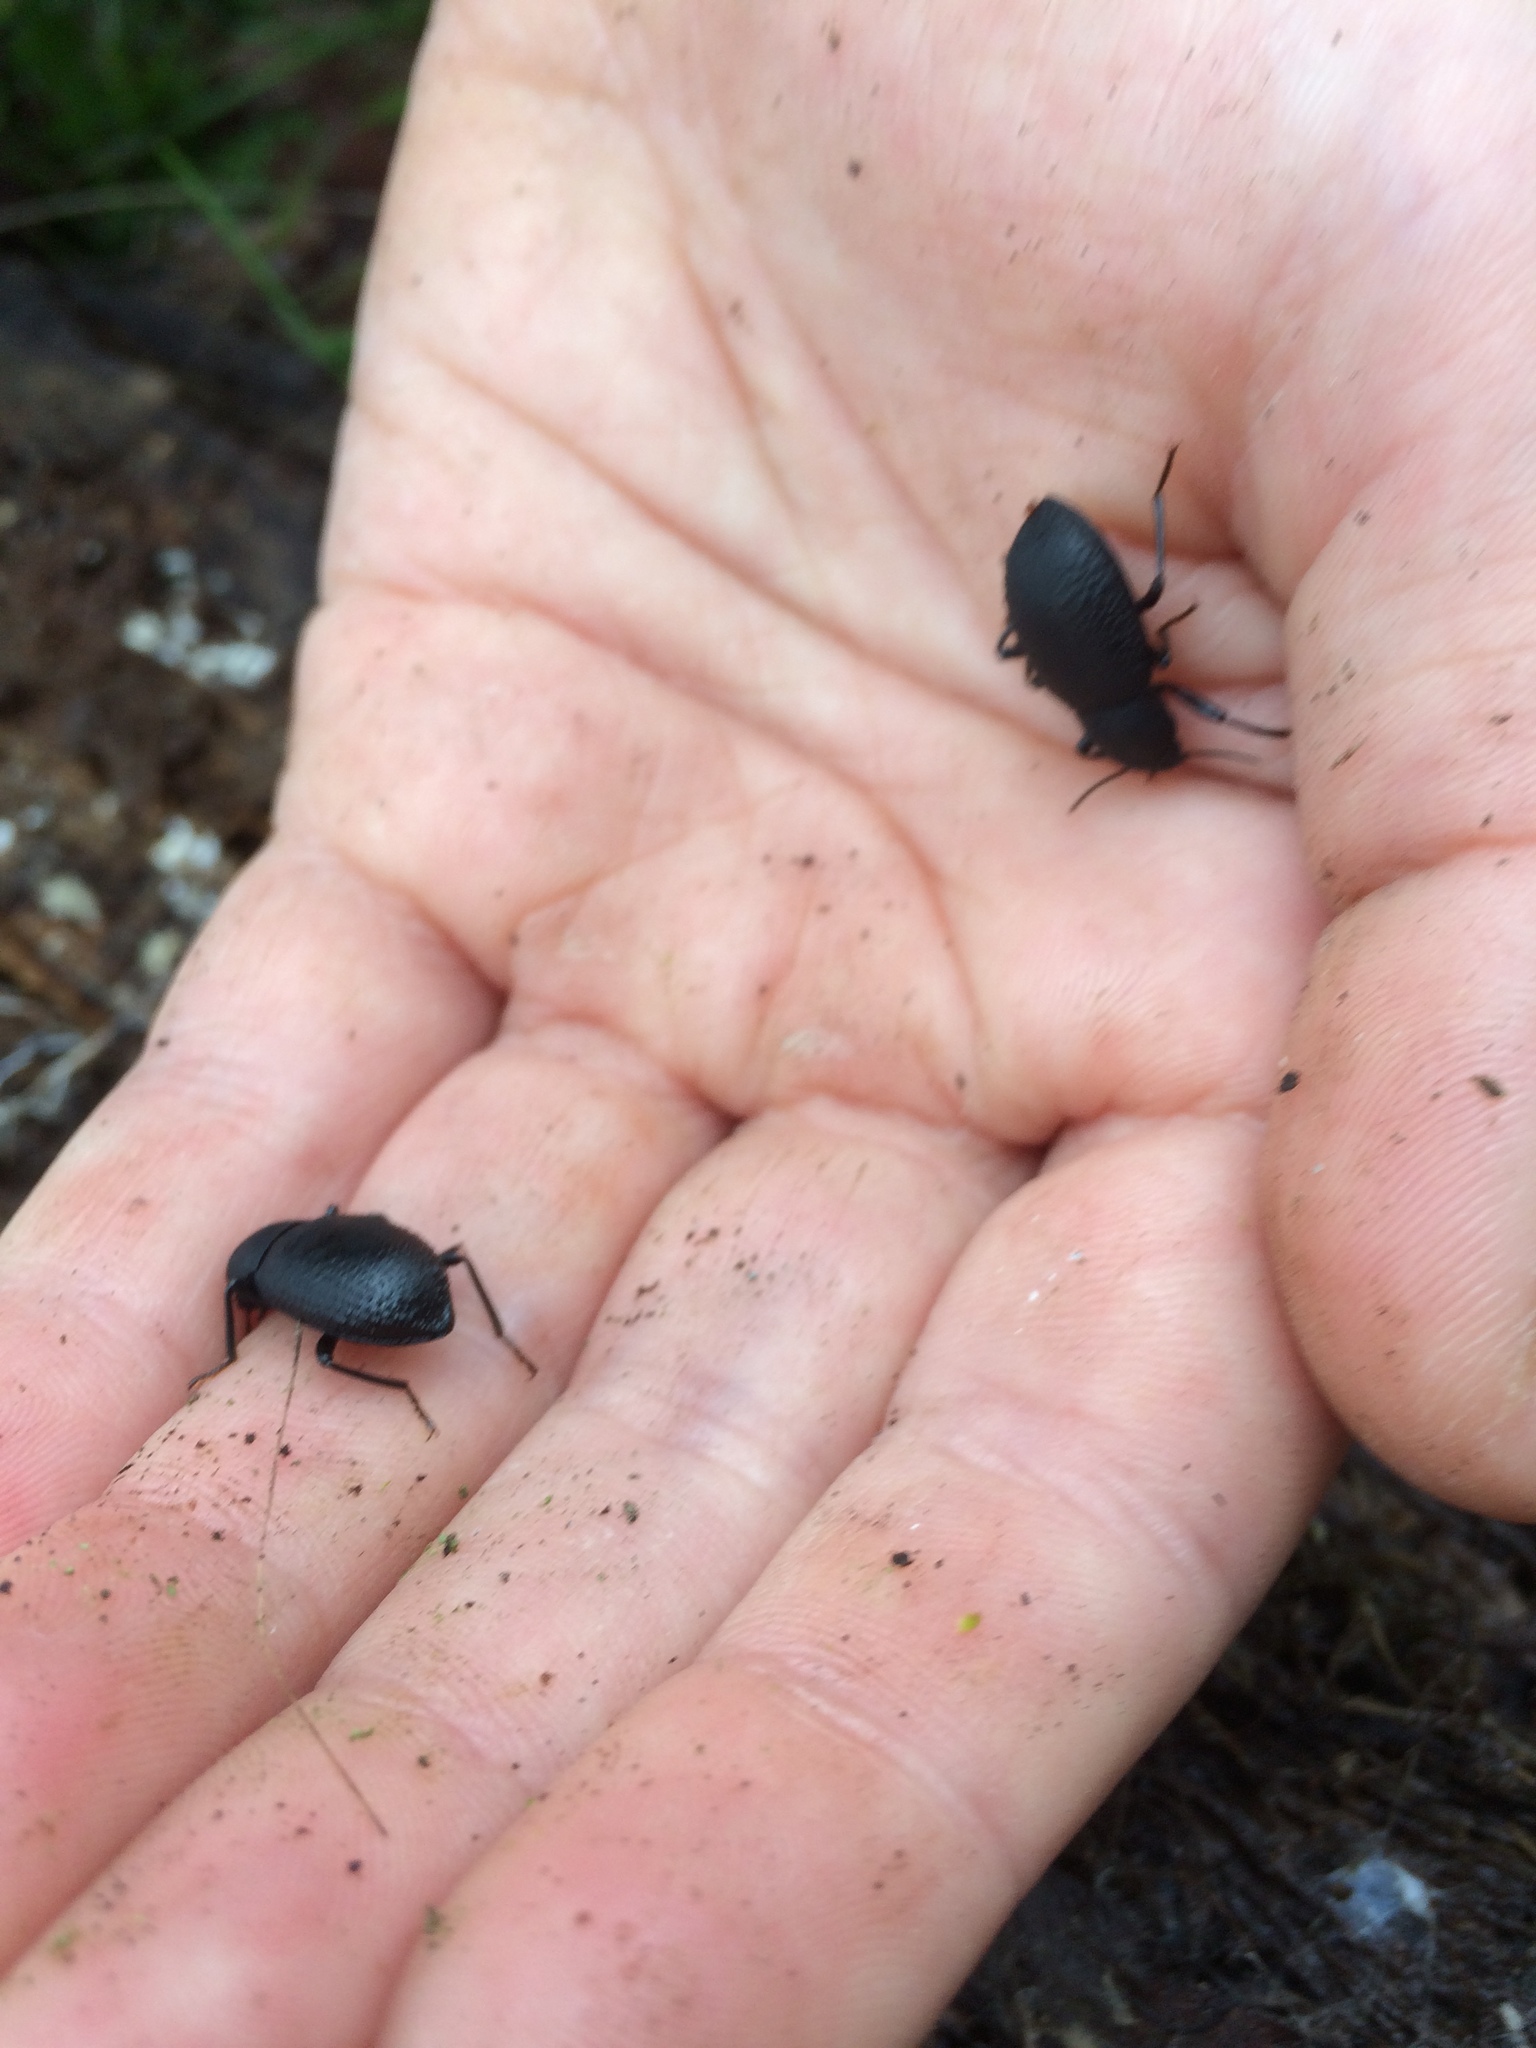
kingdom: Animalia
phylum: Arthropoda
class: Insecta
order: Coleoptera
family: Tenebrionidae
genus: Cibdelis
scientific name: Cibdelis blaschkii
